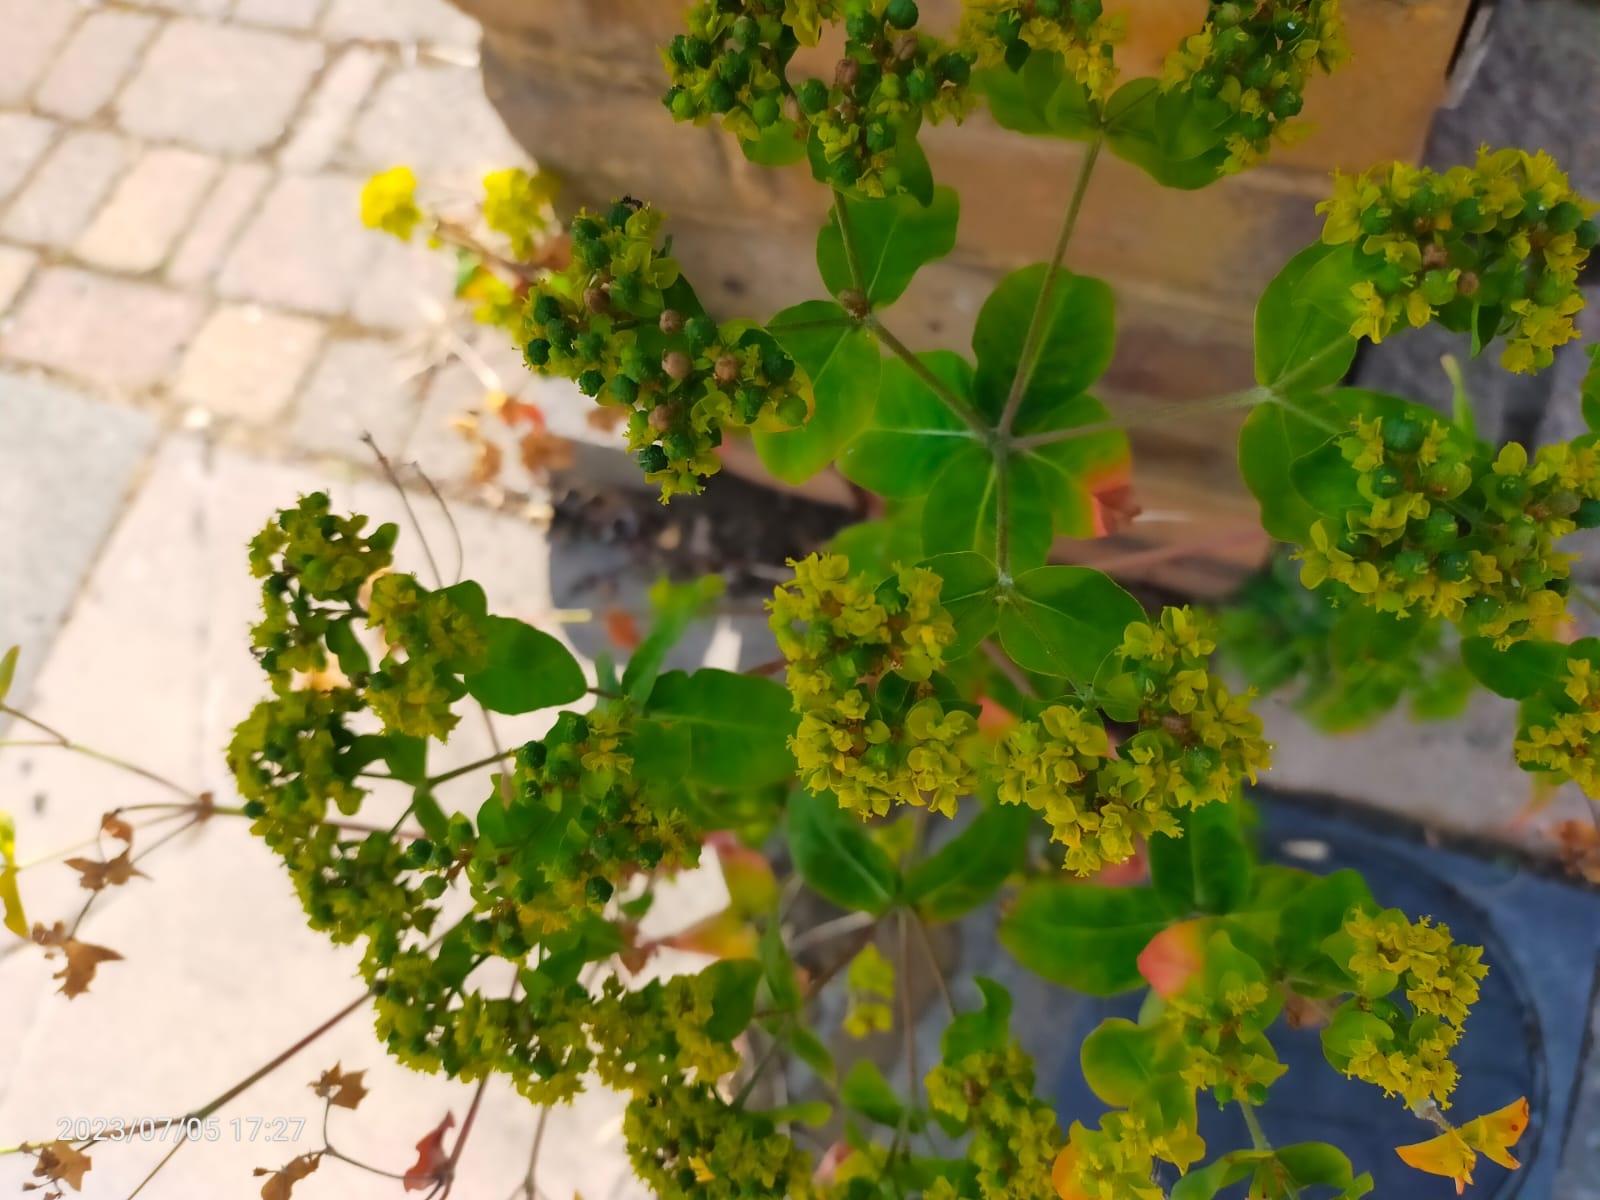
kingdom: Plantae
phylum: Tracheophyta
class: Magnoliopsida
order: Malpighiales
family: Euphorbiaceae
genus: Euphorbia
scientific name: Euphorbia oblongata
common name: Balkan spurge
